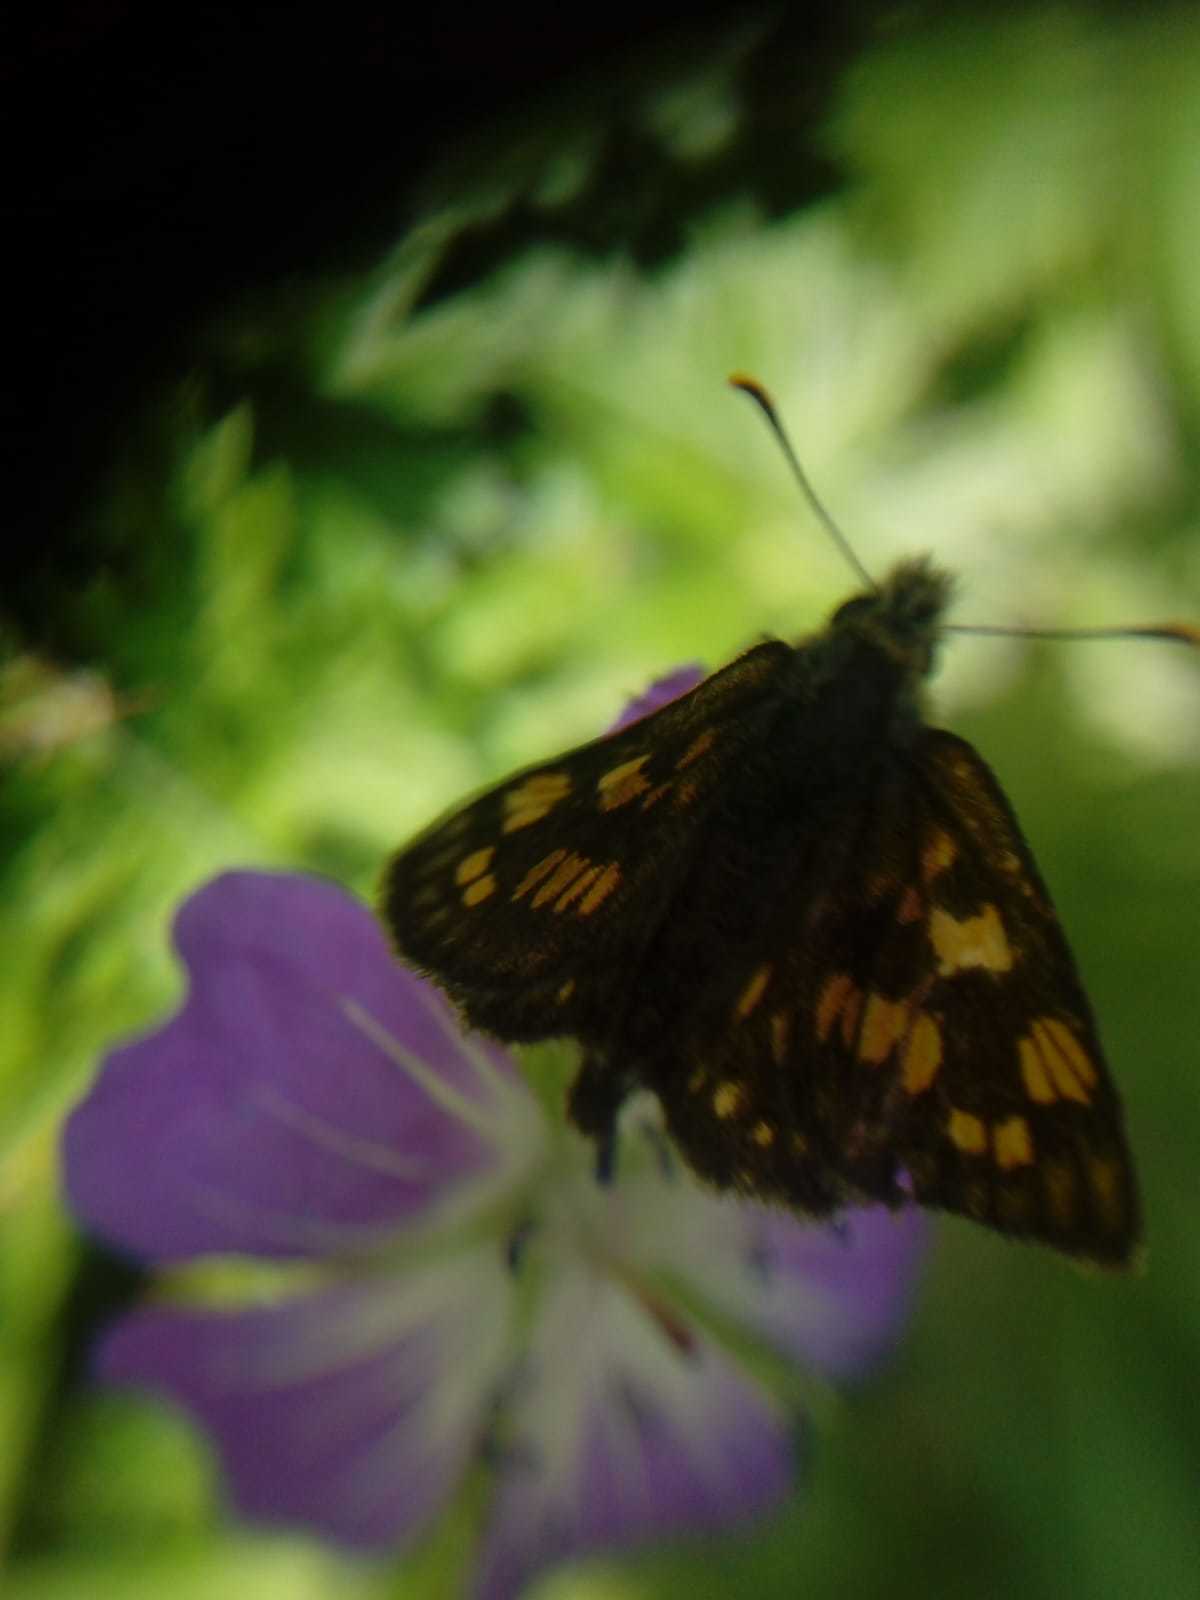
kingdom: Animalia
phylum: Arthropoda
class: Insecta
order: Lepidoptera
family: Hesperiidae
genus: Carterocephalus
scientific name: Carterocephalus palaemon
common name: Chequered skipper
